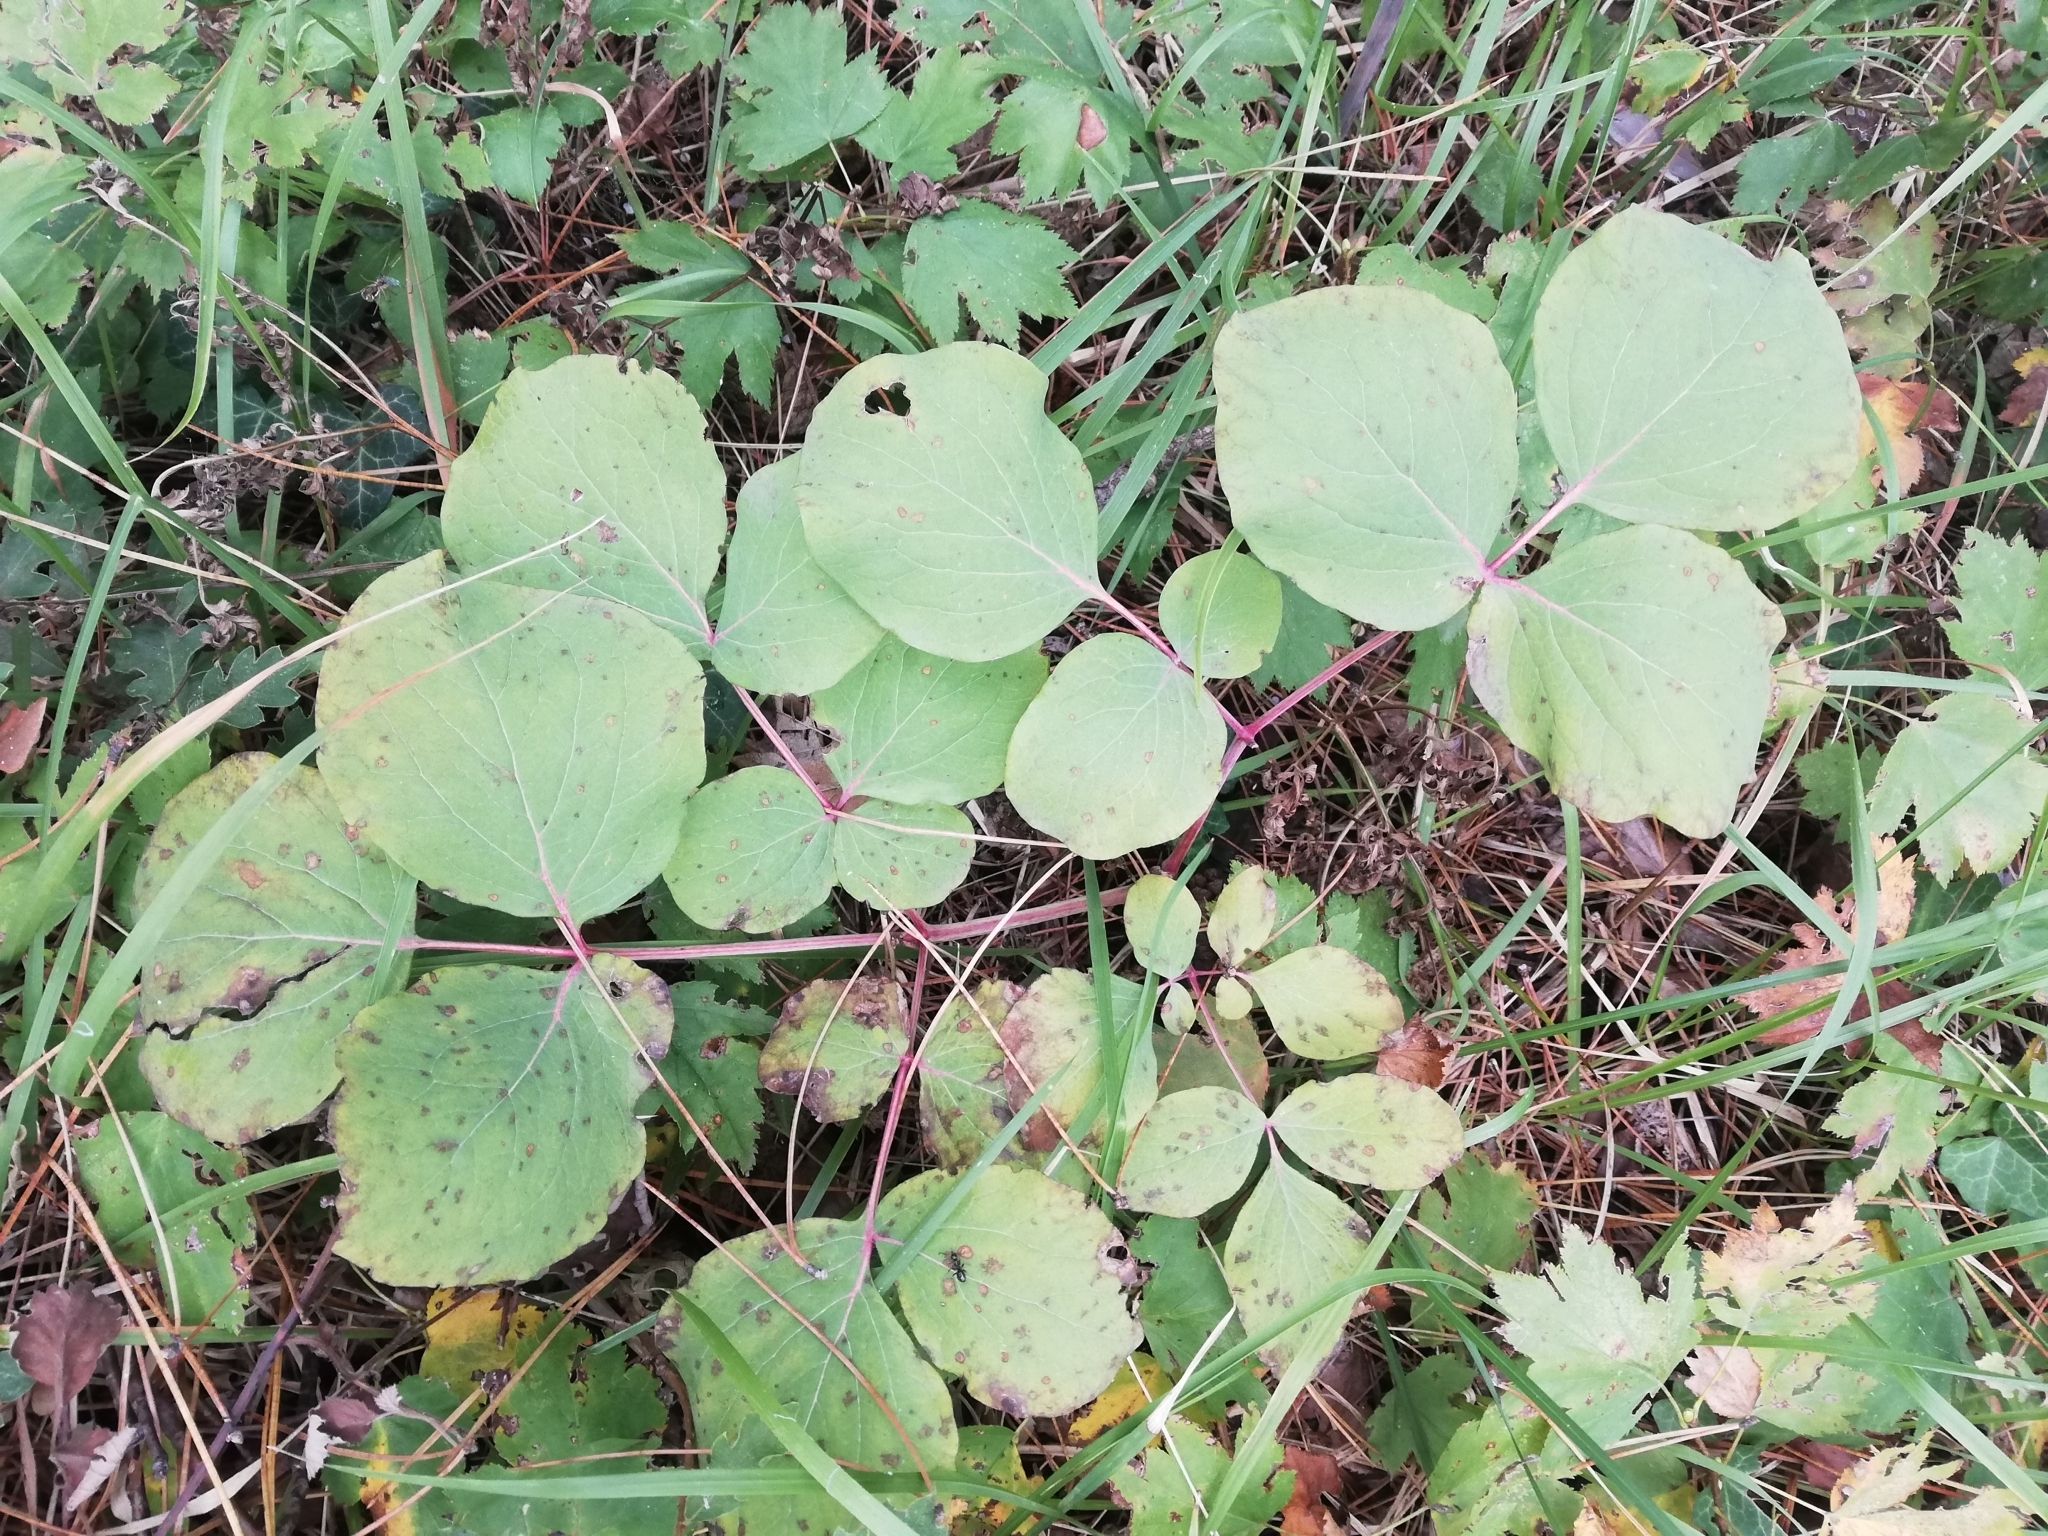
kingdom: Plantae
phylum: Tracheophyta
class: Magnoliopsida
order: Saxifragales
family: Paeoniaceae
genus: Paeonia
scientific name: Paeonia daurica
